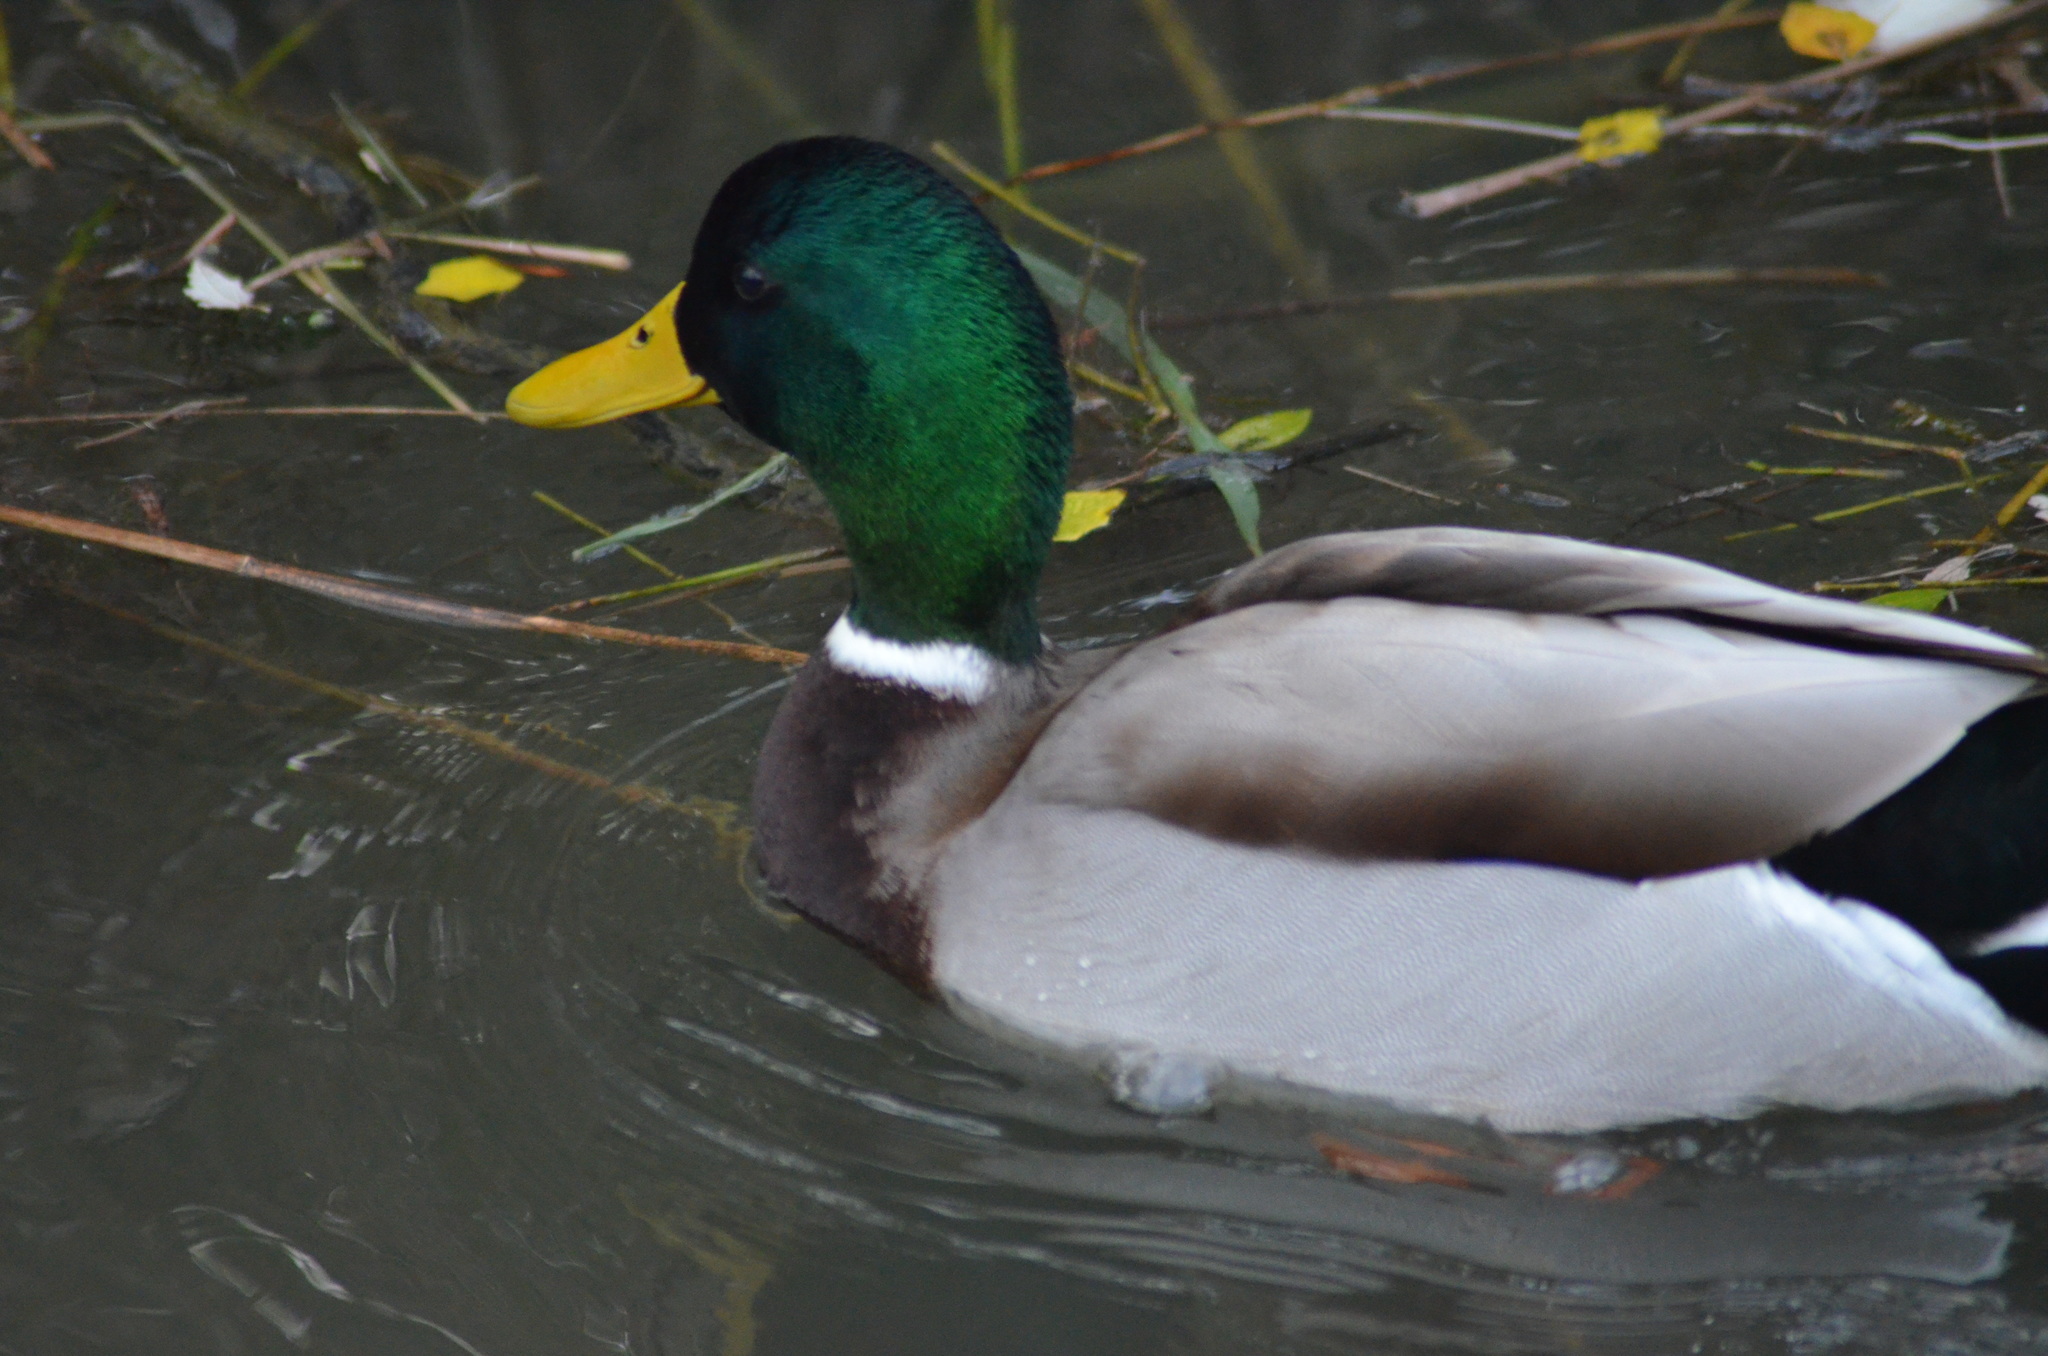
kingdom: Animalia
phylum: Chordata
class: Aves
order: Anseriformes
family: Anatidae
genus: Anas
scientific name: Anas platyrhynchos
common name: Mallard
